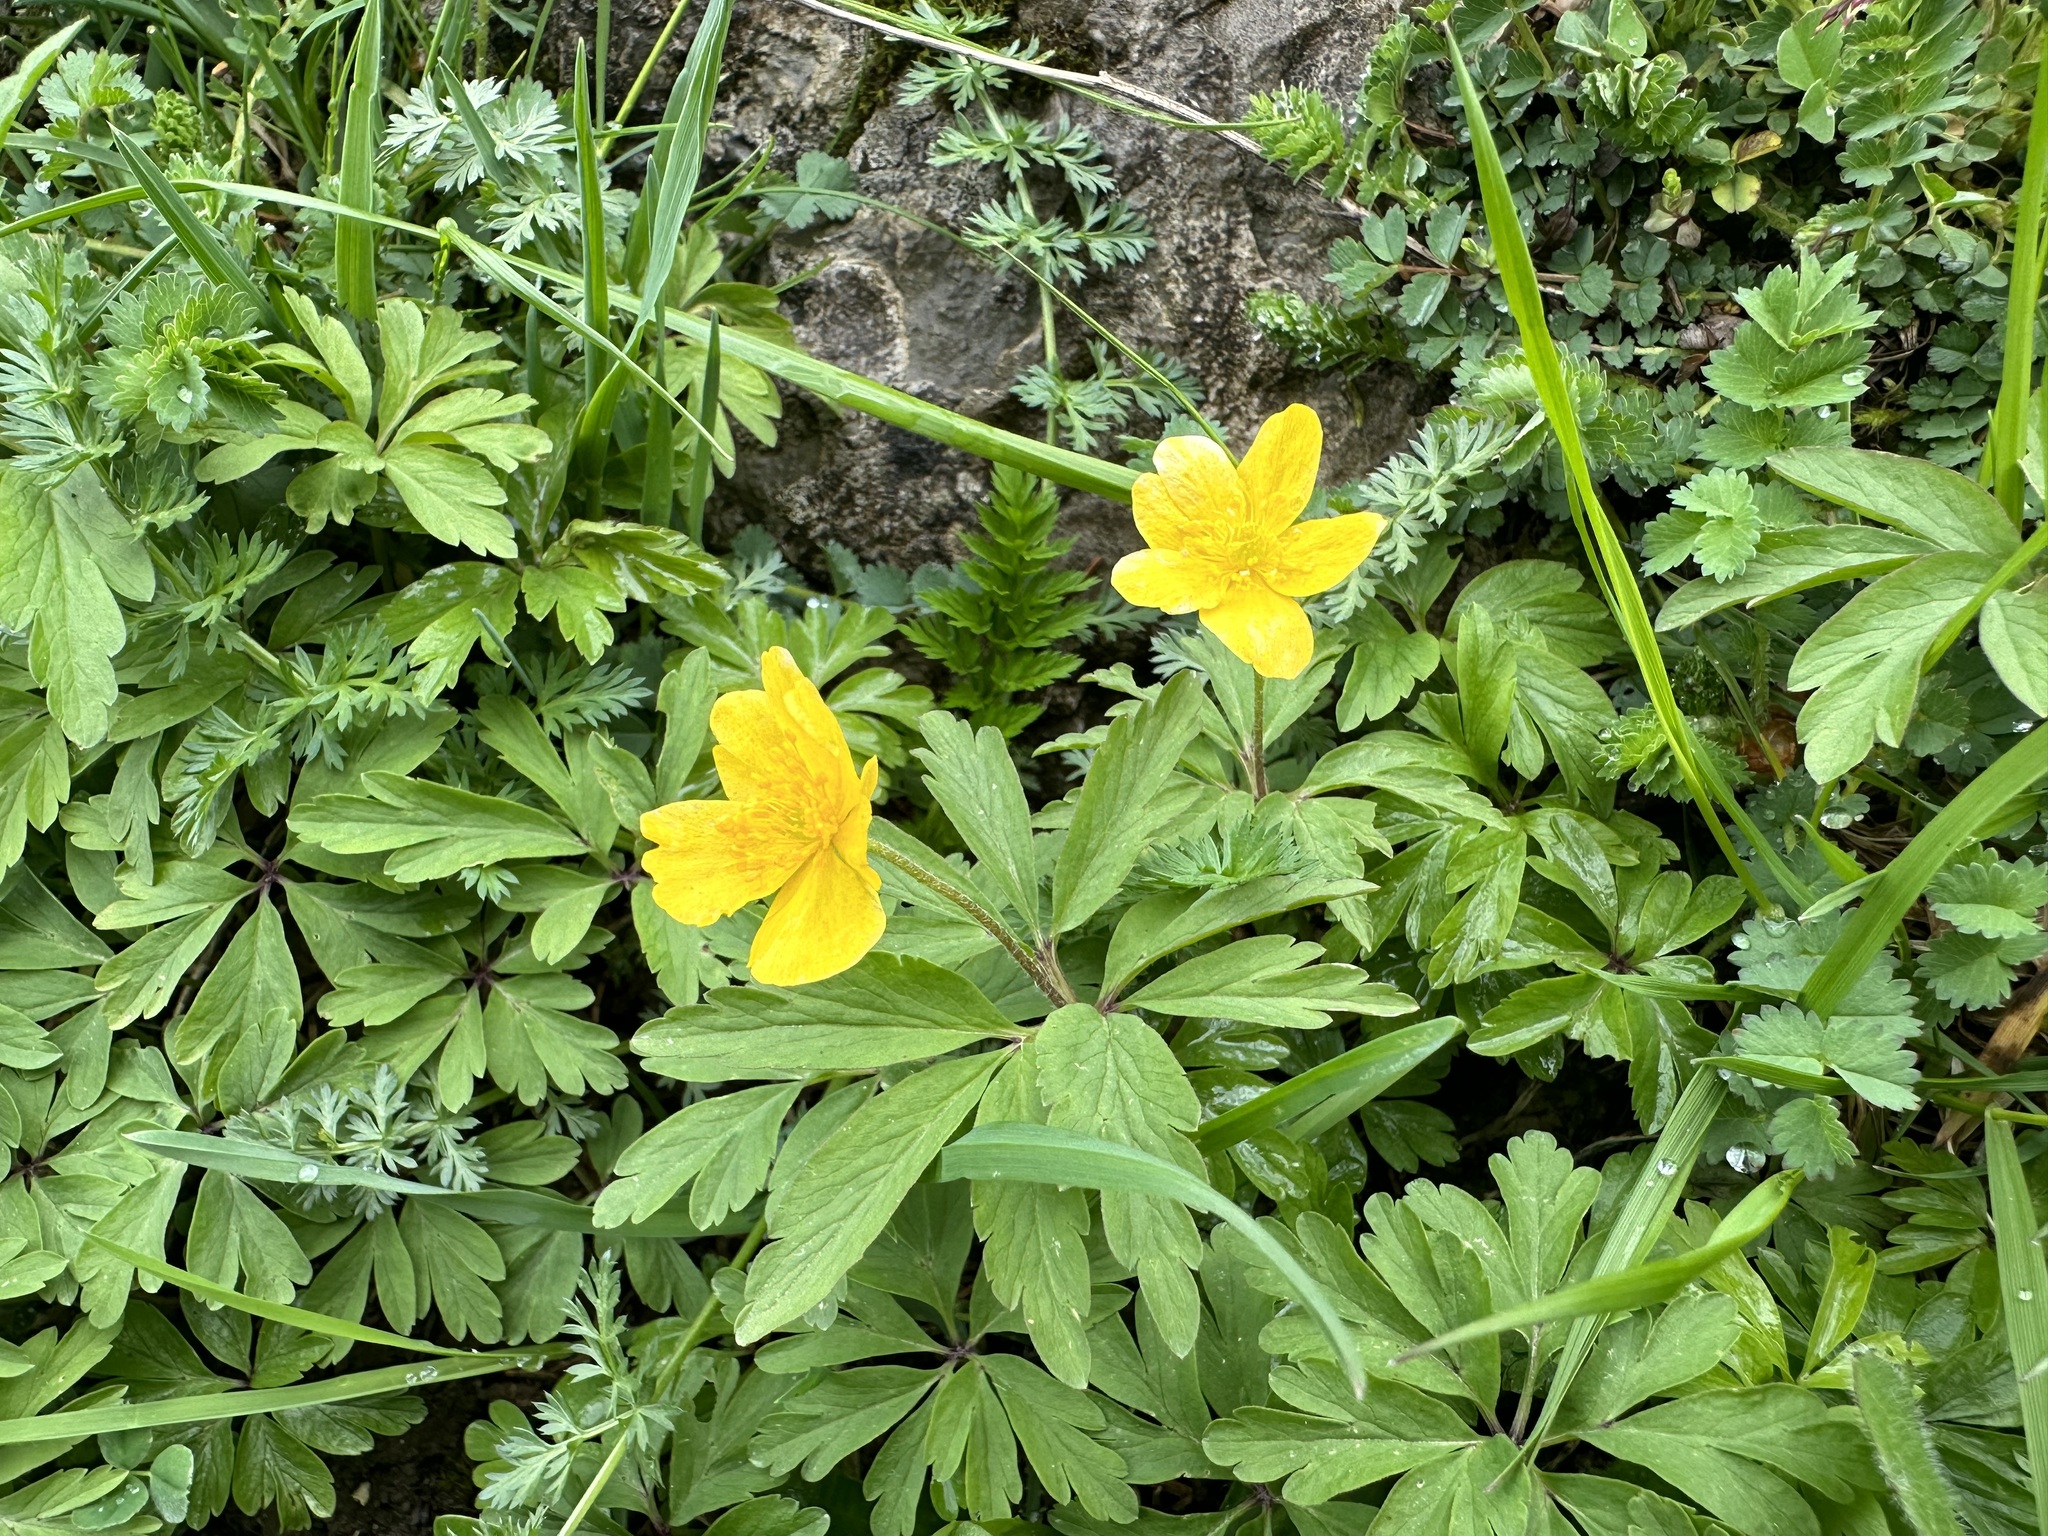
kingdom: Plantae
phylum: Tracheophyta
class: Magnoliopsida
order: Ranunculales
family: Ranunculaceae
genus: Anemone
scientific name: Anemone ranunculoides
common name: Yellow anemone
